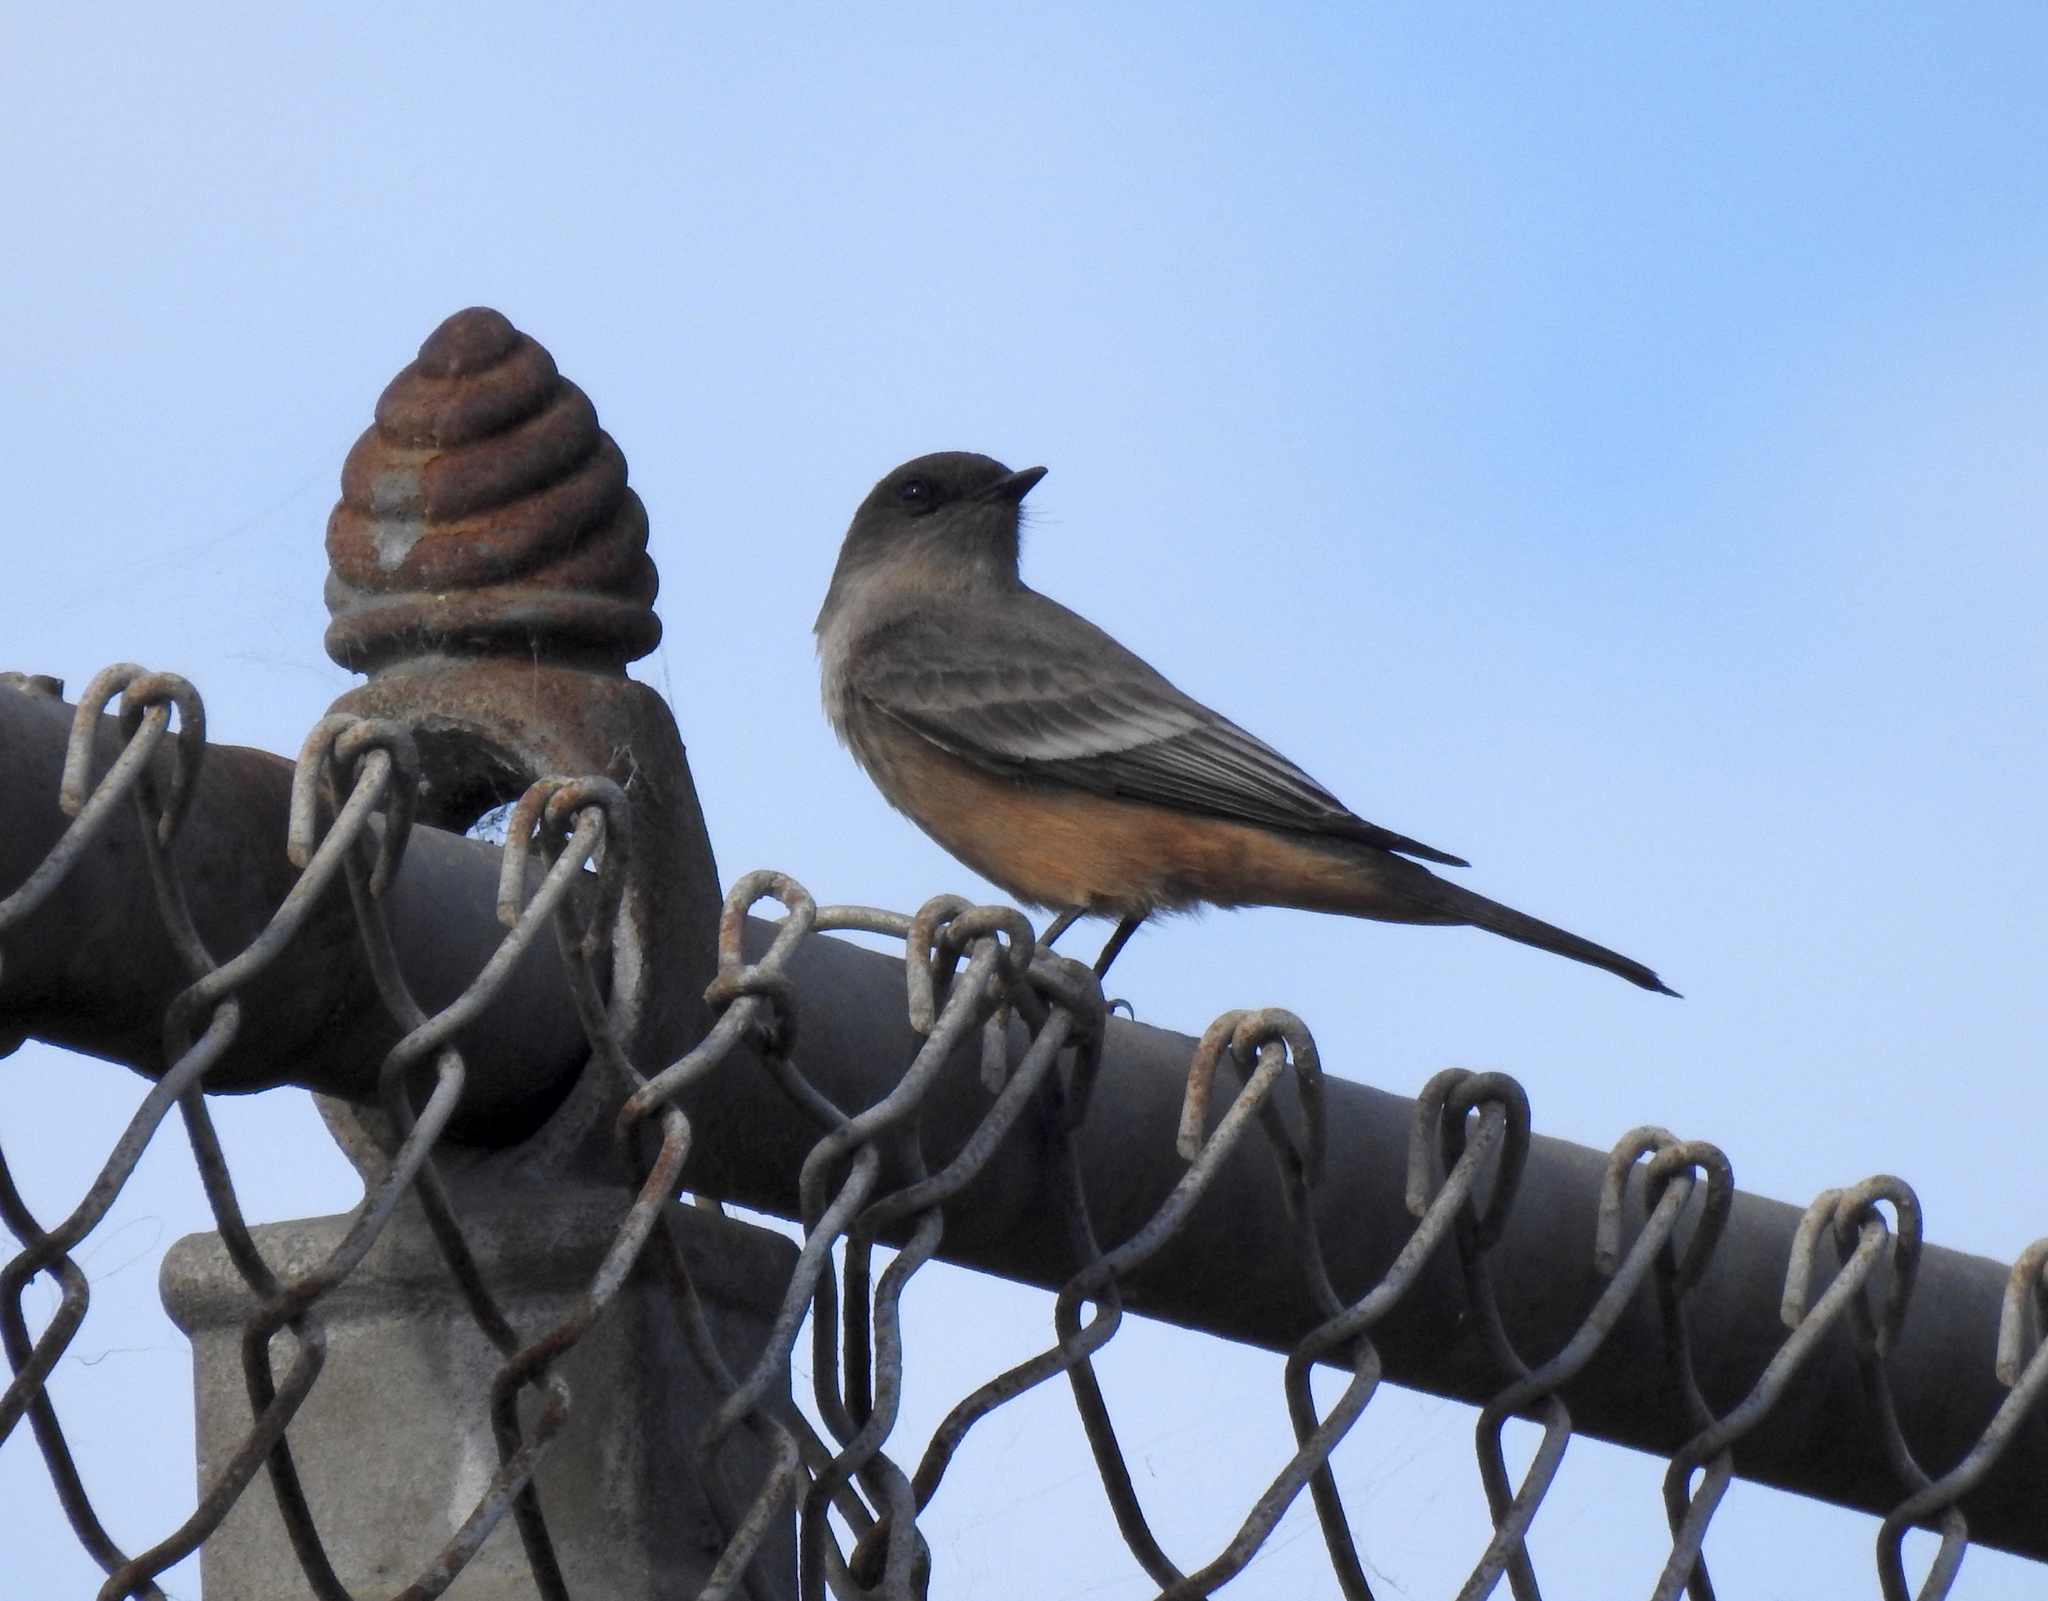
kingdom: Animalia
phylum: Chordata
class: Aves
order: Passeriformes
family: Tyrannidae
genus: Sayornis
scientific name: Sayornis saya
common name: Say's phoebe
